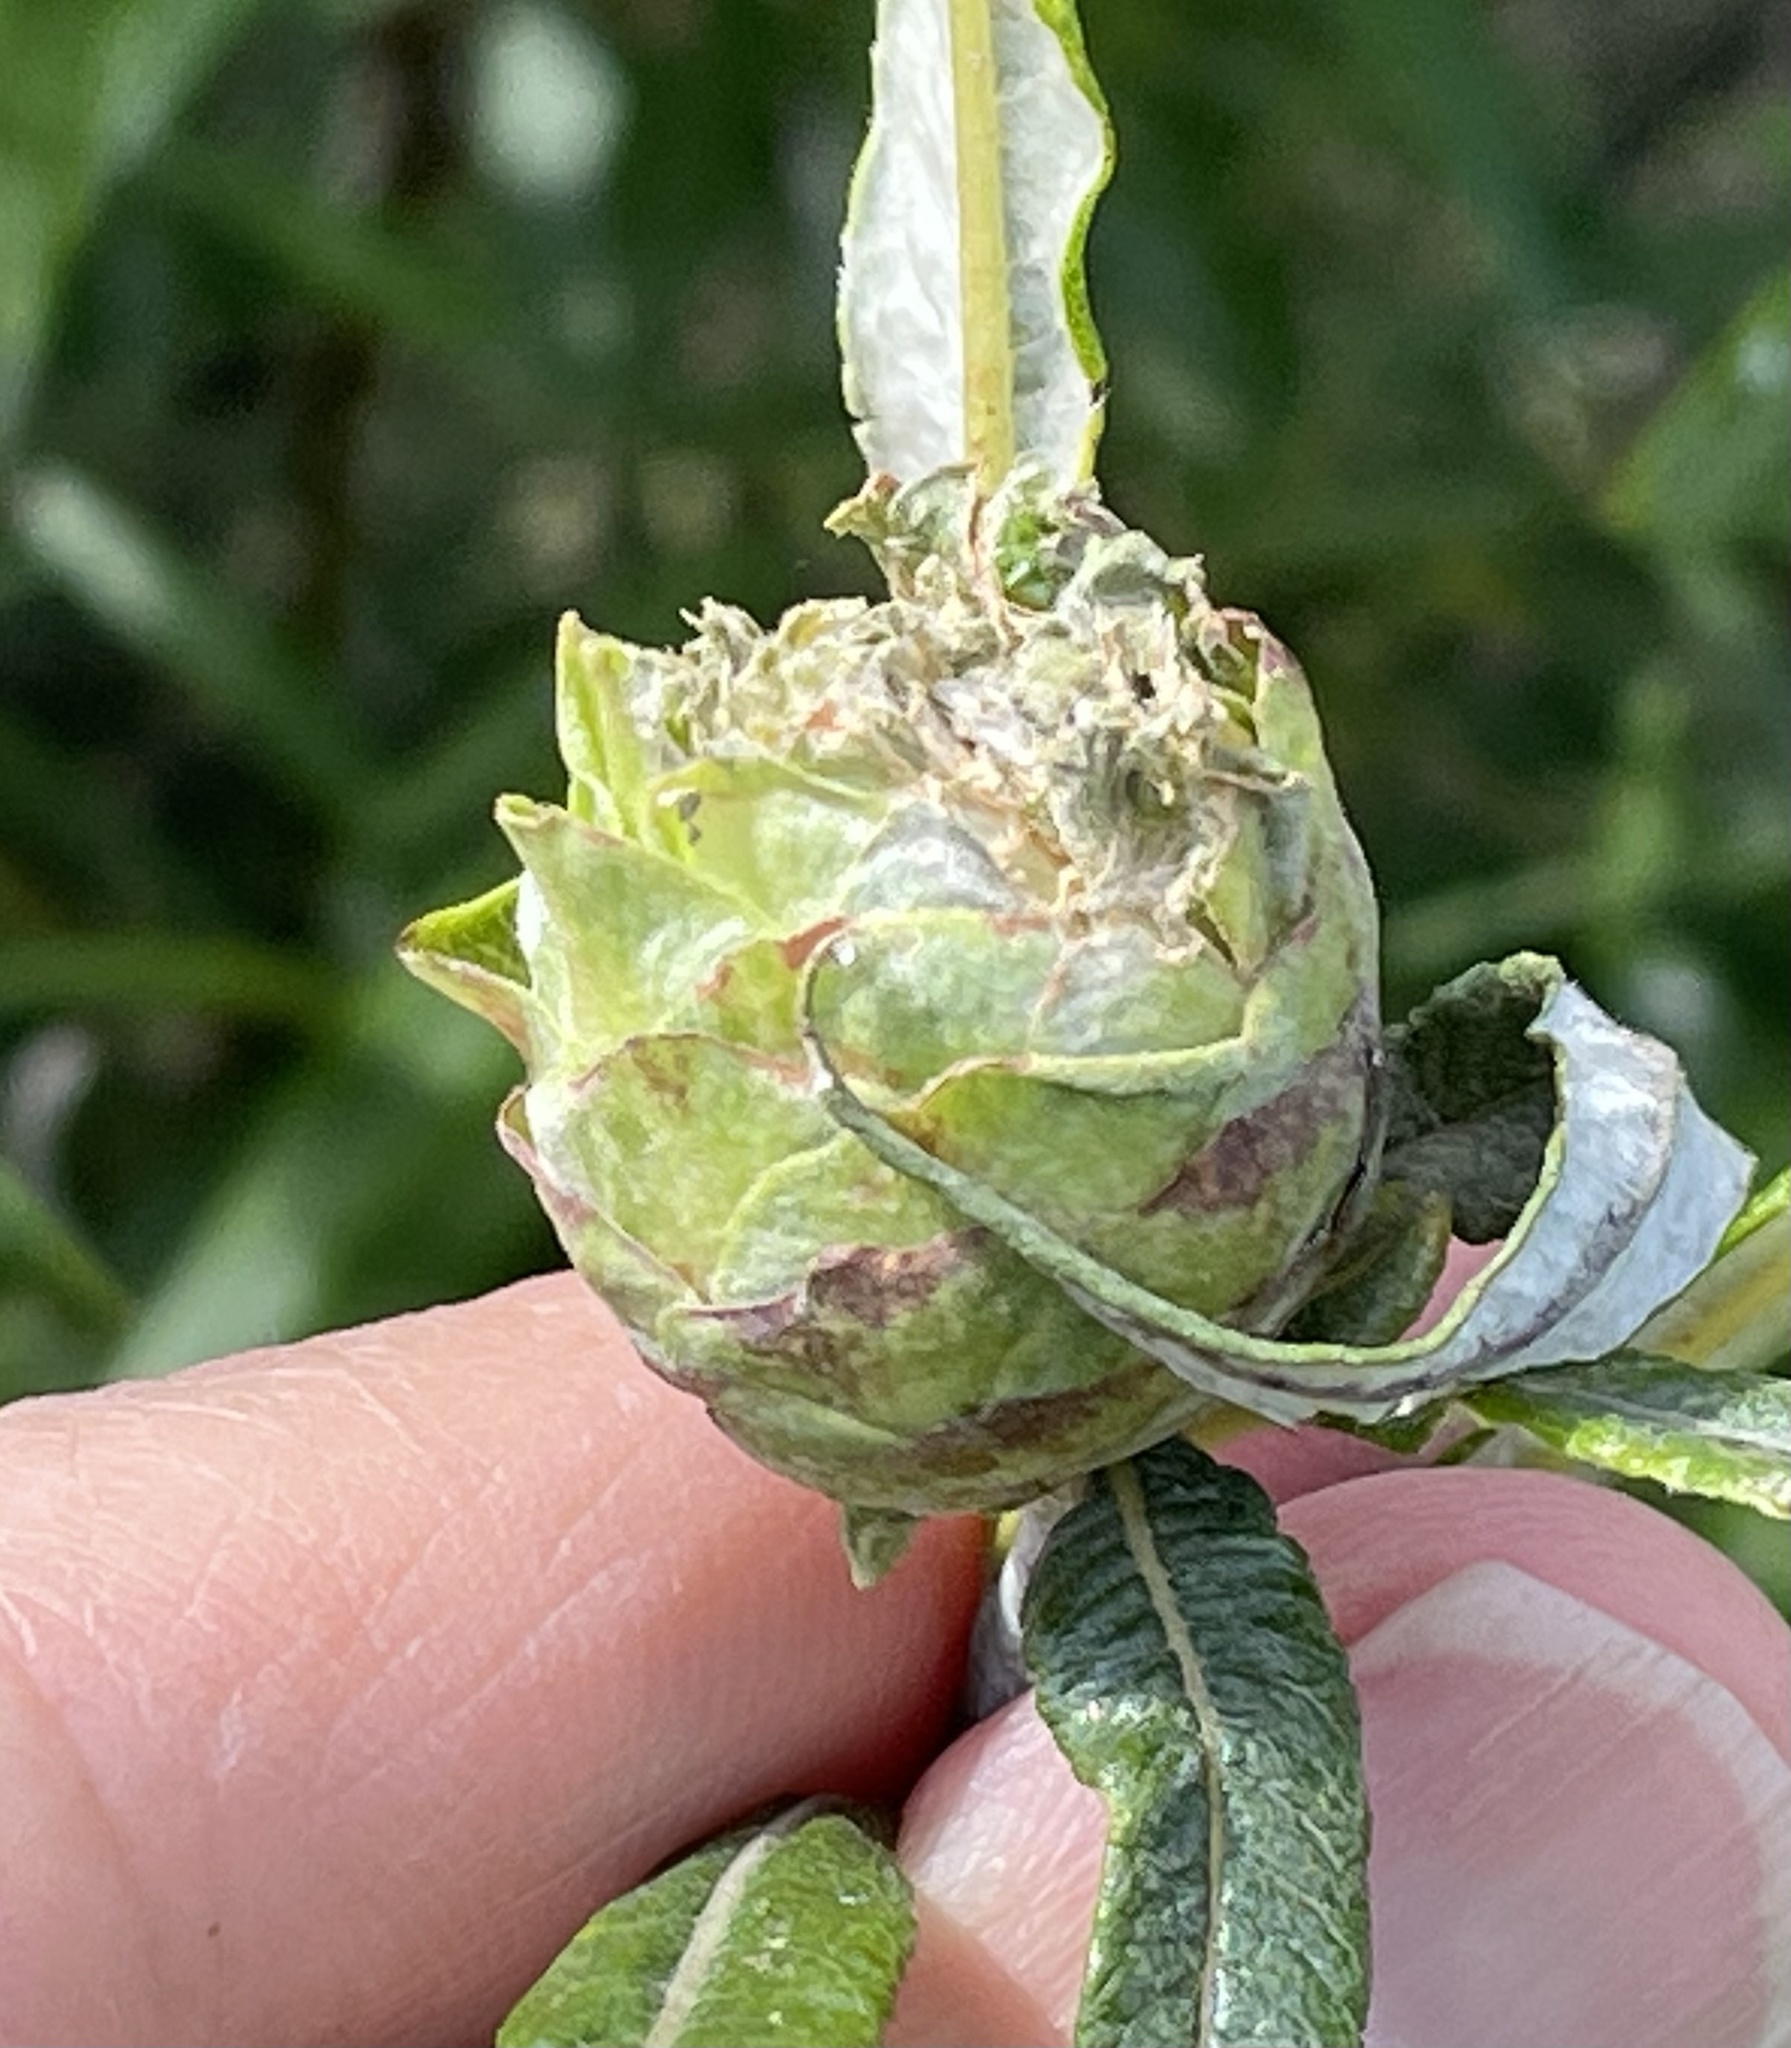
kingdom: Animalia
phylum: Arthropoda
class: Insecta
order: Diptera
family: Cecidomyiidae
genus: Rabdophaga
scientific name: Rabdophaga strobiloides
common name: Willow pinecone gall midge
